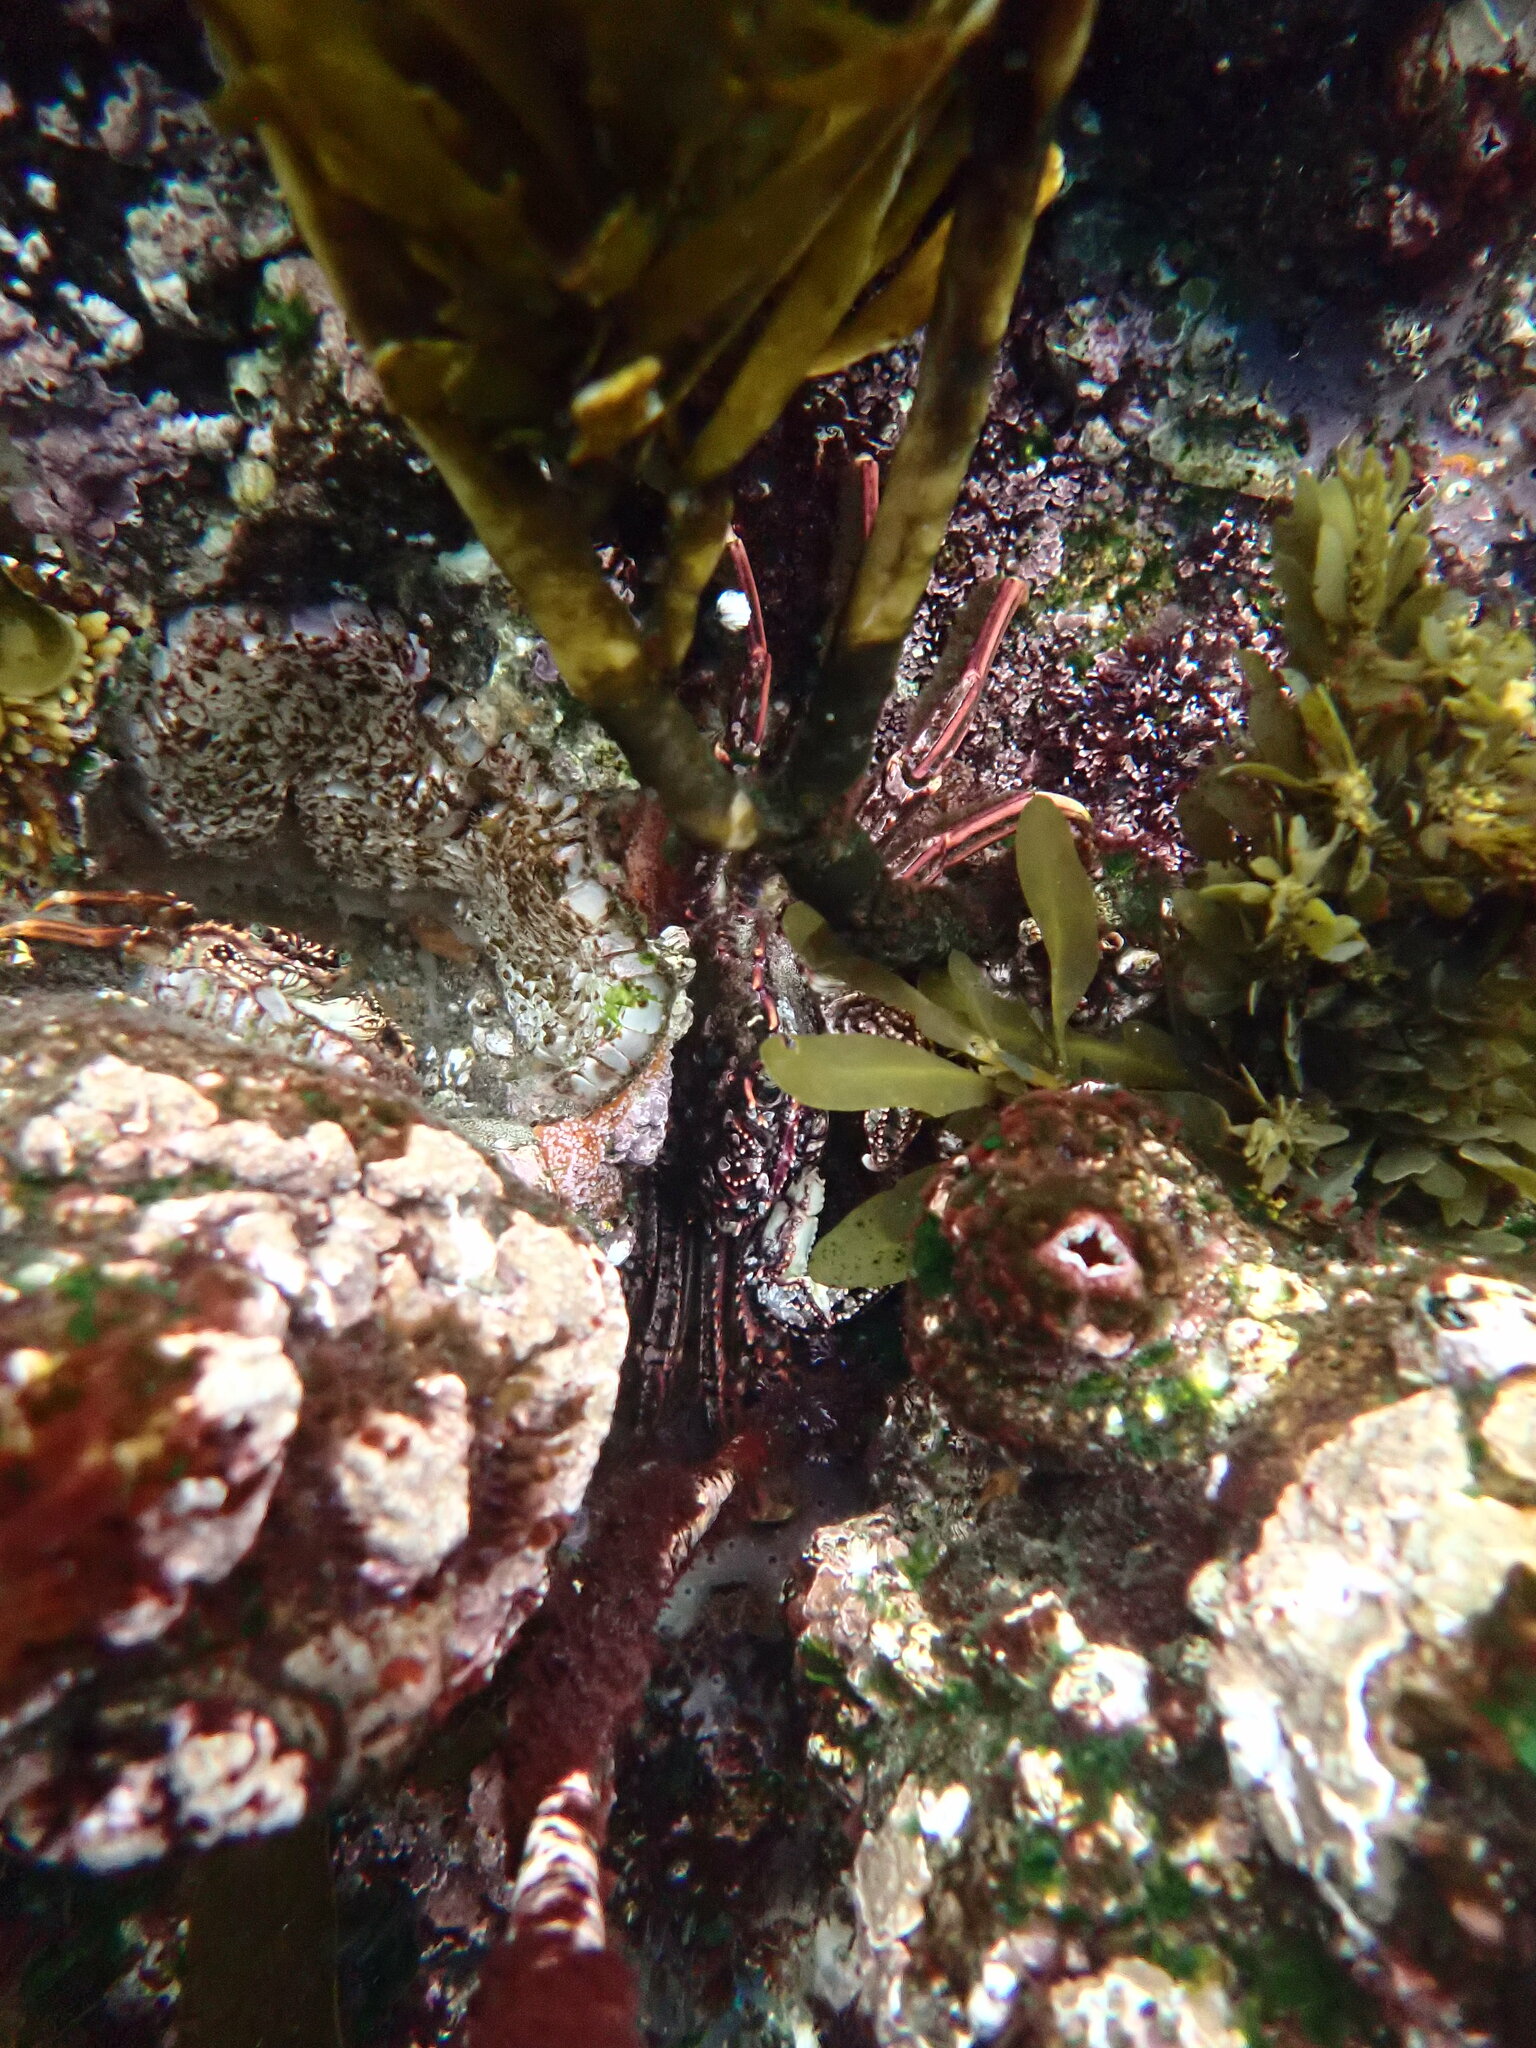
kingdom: Animalia
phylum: Arthropoda
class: Malacostraca
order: Decapoda
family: Plagusiidae
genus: Guinusia
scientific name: Guinusia chabrus
